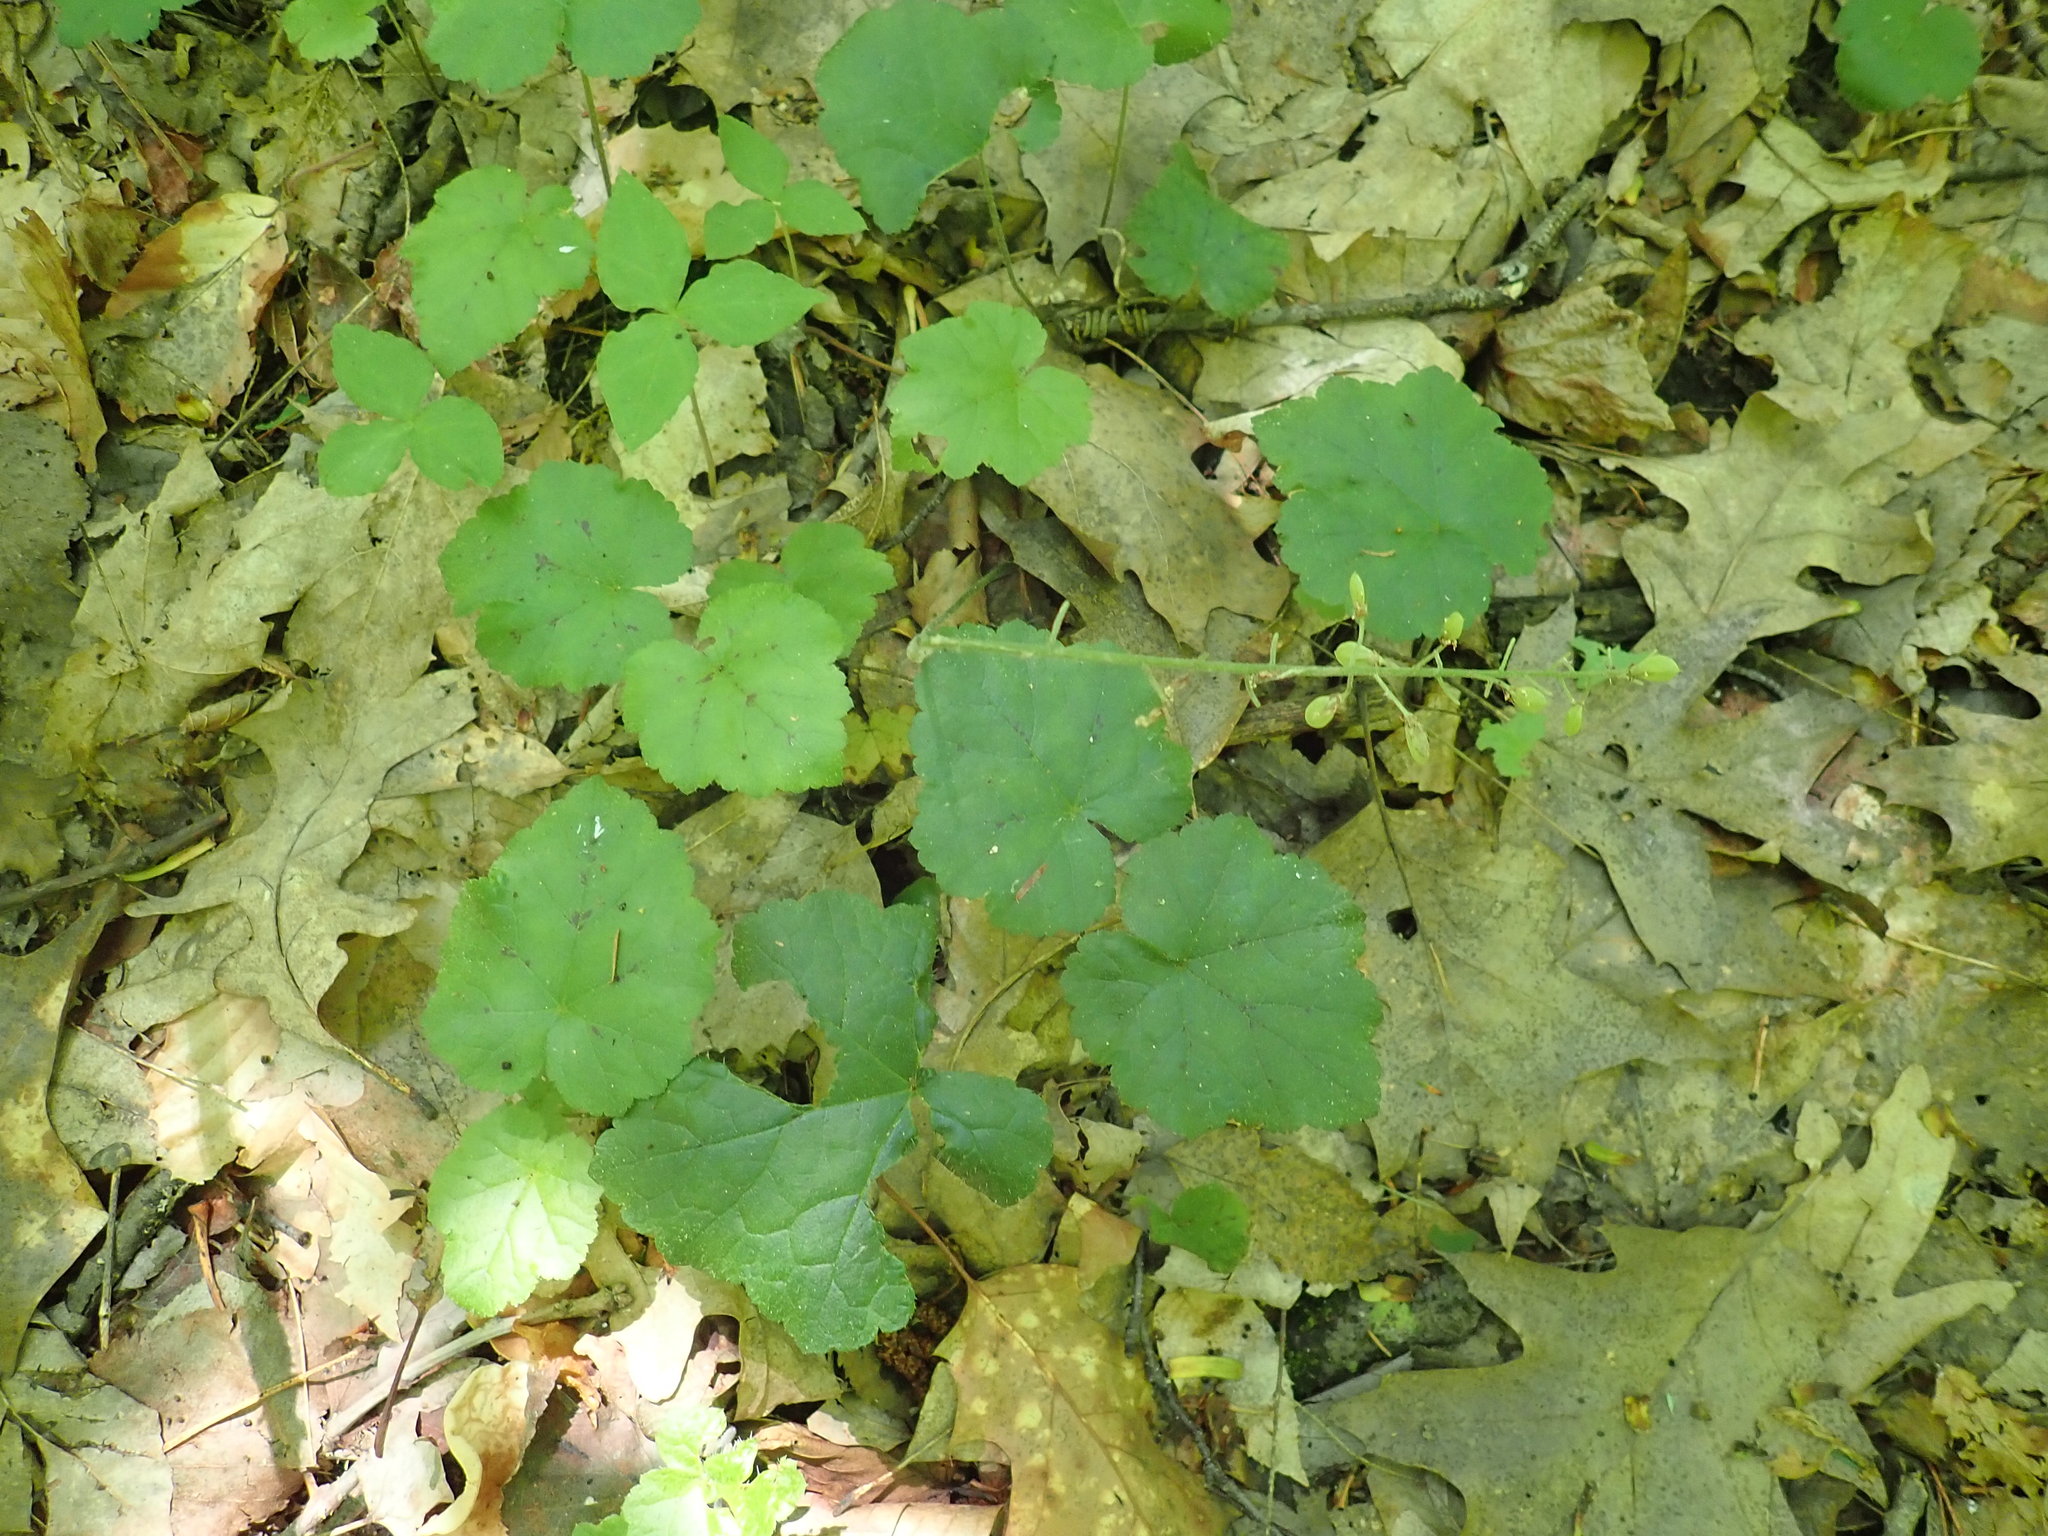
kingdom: Plantae
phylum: Tracheophyta
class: Magnoliopsida
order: Saxifragales
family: Saxifragaceae
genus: Tiarella
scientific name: Tiarella stolonifera
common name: Stoloniferous foamflower
